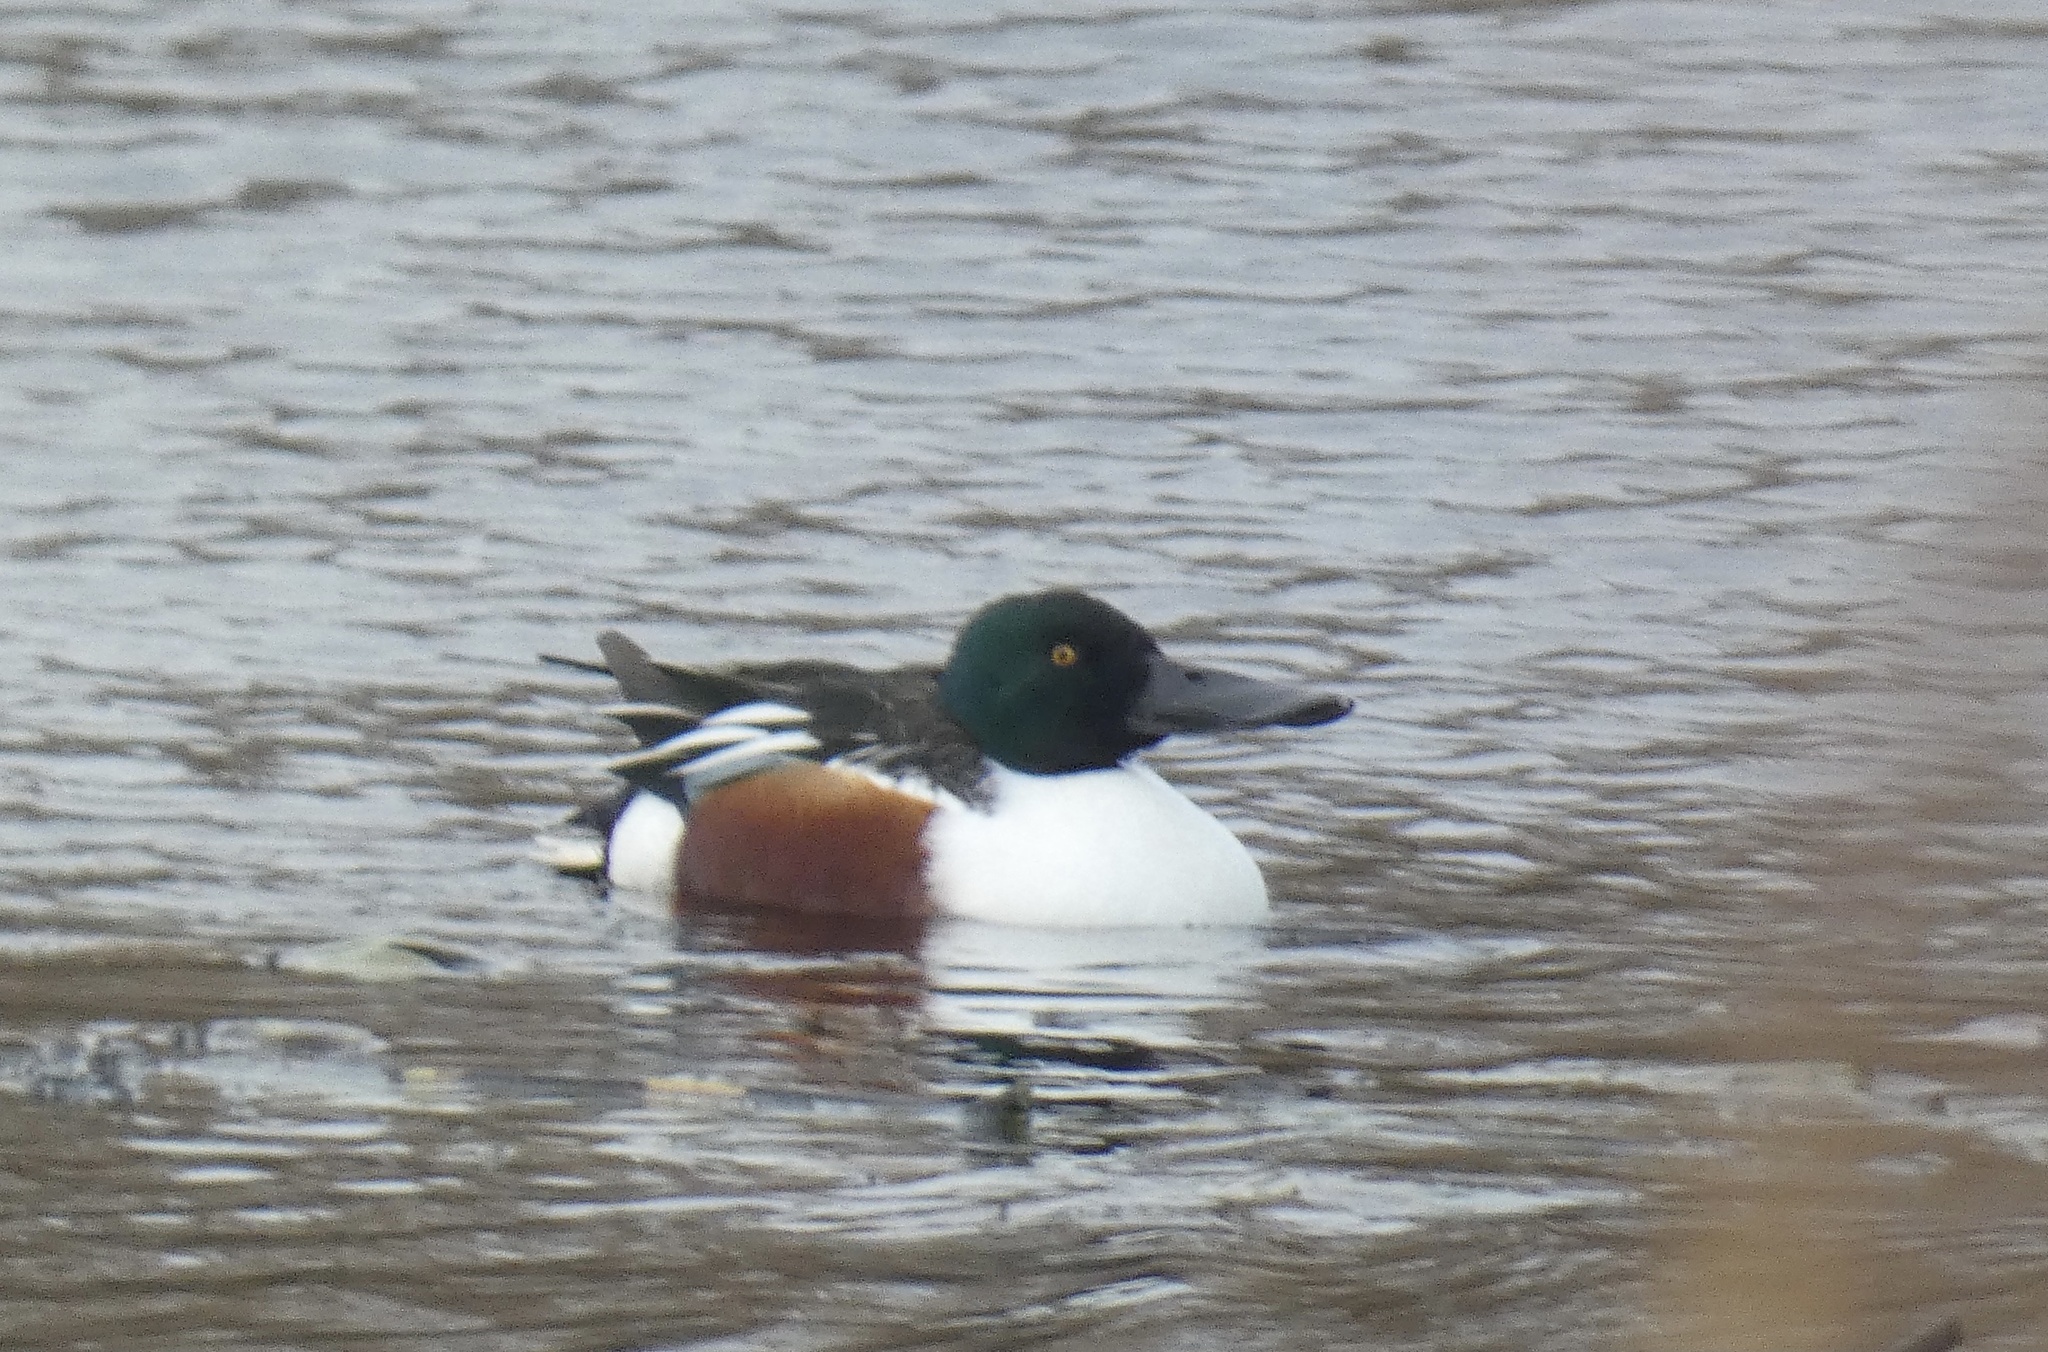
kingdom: Animalia
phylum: Chordata
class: Aves
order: Anseriformes
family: Anatidae
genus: Spatula
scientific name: Spatula clypeata
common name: Northern shoveler
